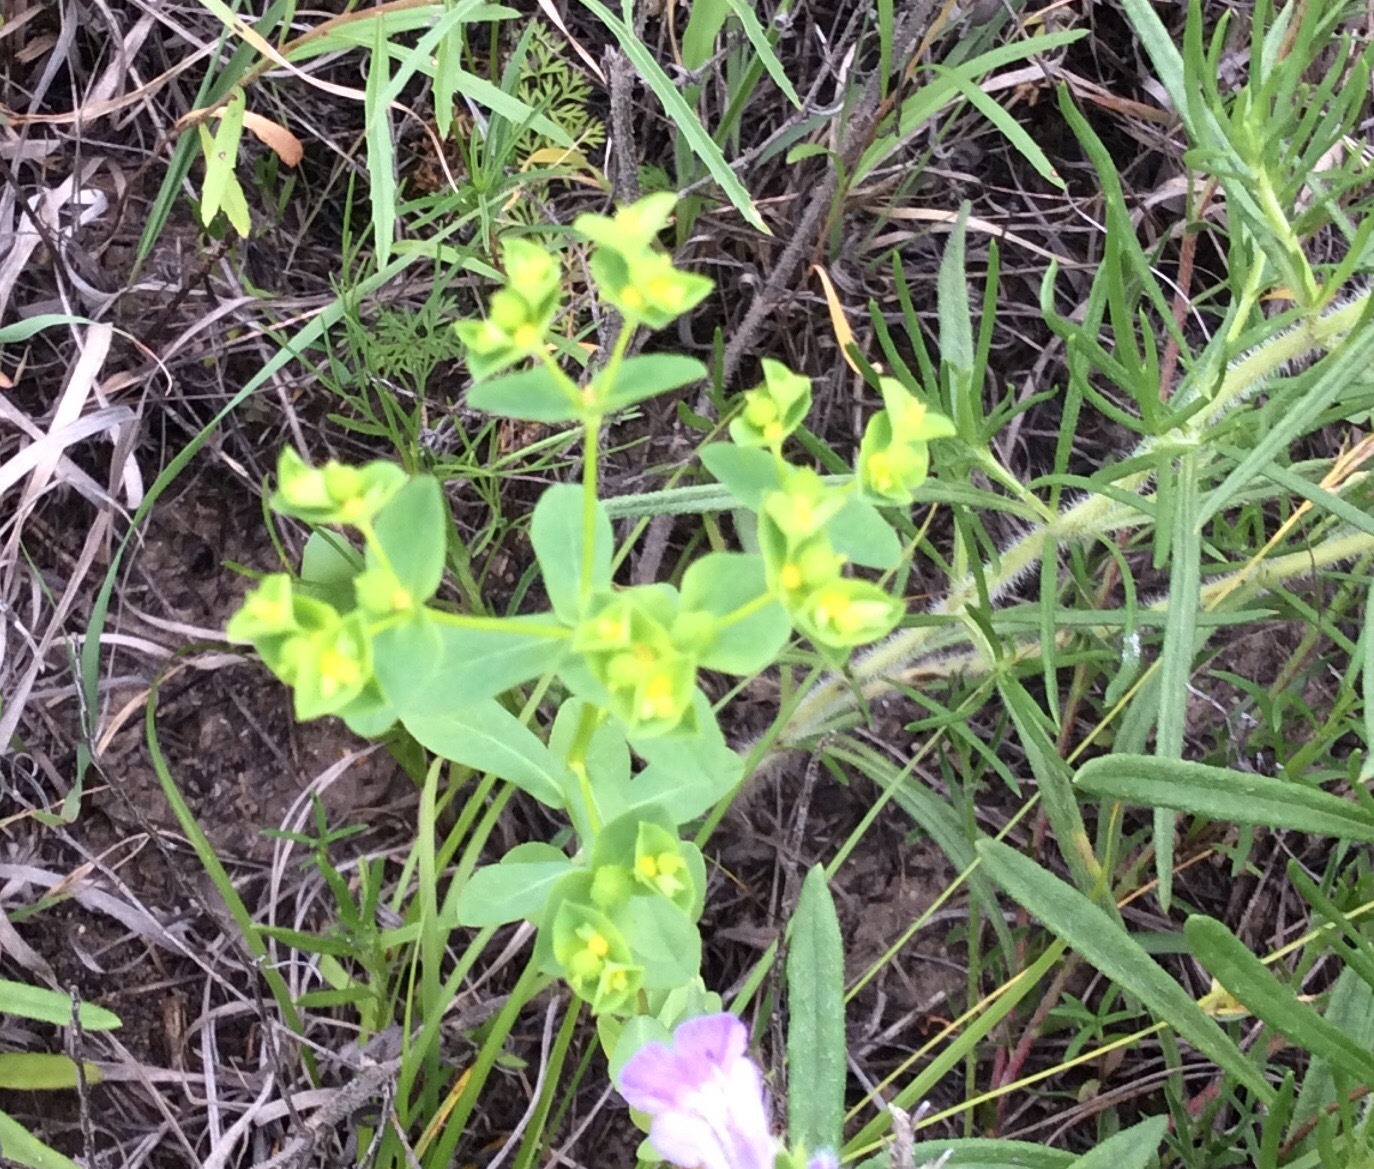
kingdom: Plantae
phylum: Tracheophyta
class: Magnoliopsida
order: Malpighiales
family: Euphorbiaceae
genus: Euphorbia
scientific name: Euphorbia spathulata
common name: Blunt spurge
